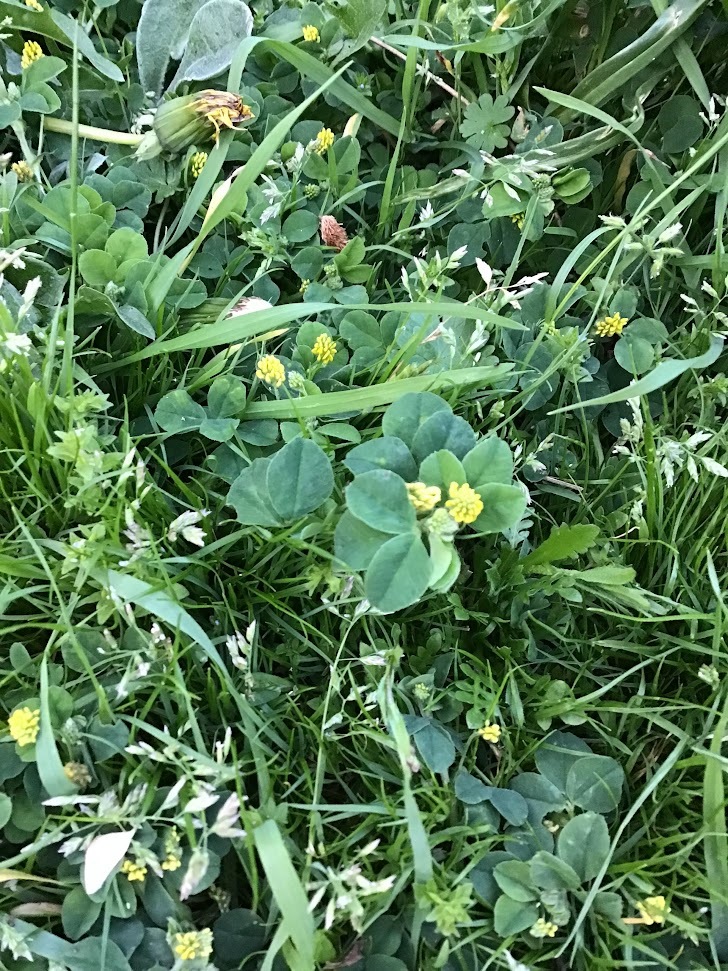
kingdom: Plantae
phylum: Tracheophyta
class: Magnoliopsida
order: Fabales
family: Fabaceae
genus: Medicago
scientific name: Medicago lupulina
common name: Black medick
